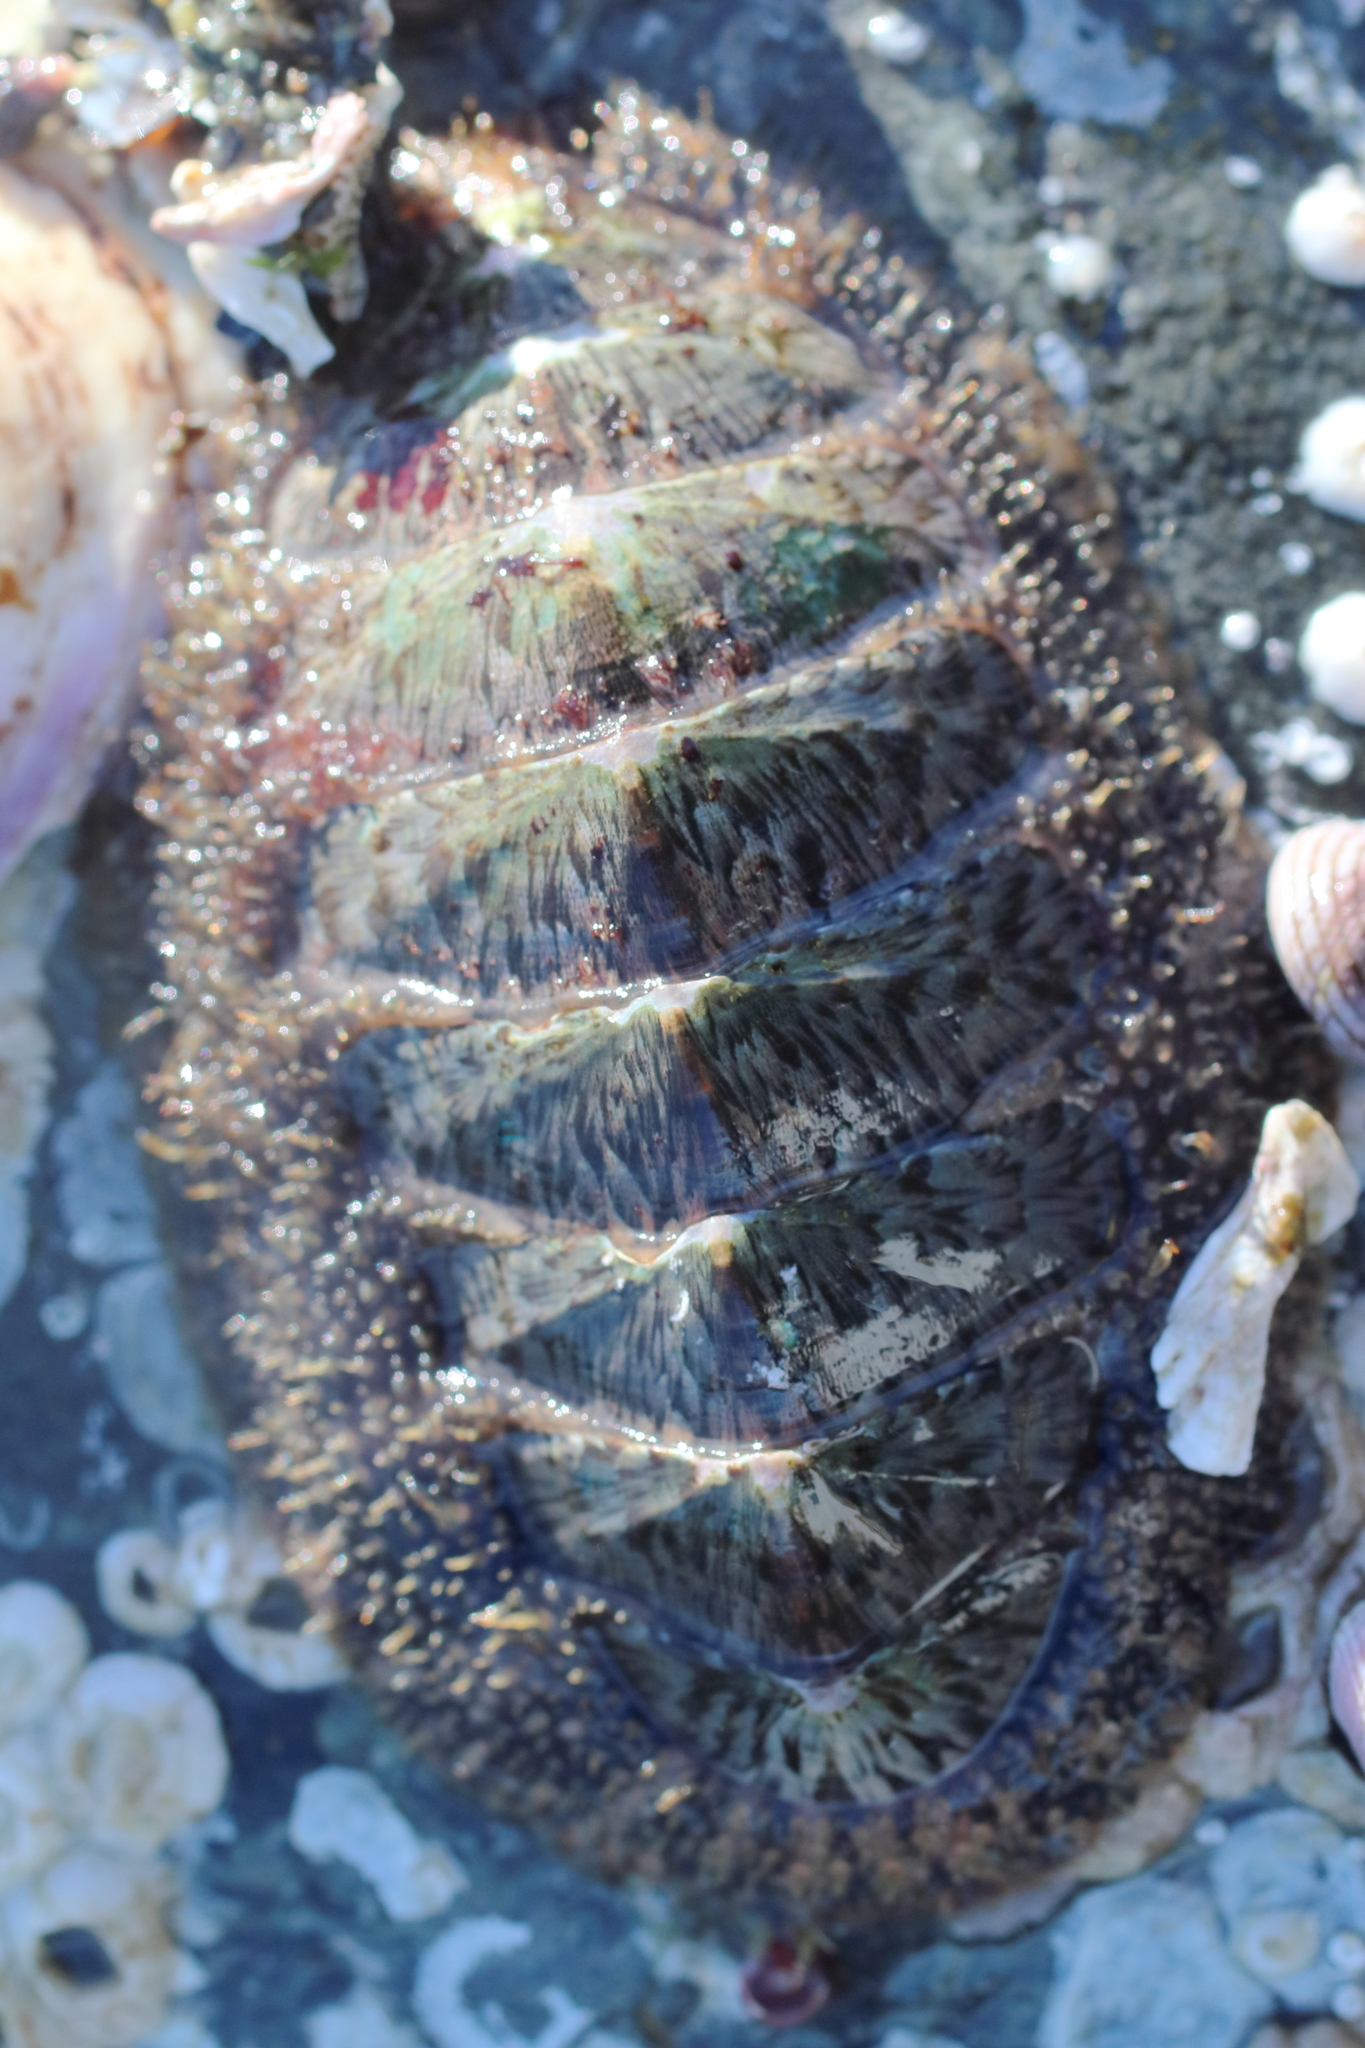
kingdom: Animalia
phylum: Mollusca
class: Polyplacophora
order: Chitonida
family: Mopaliidae
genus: Mopalia
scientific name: Mopalia lignosa
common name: Woody chiton
